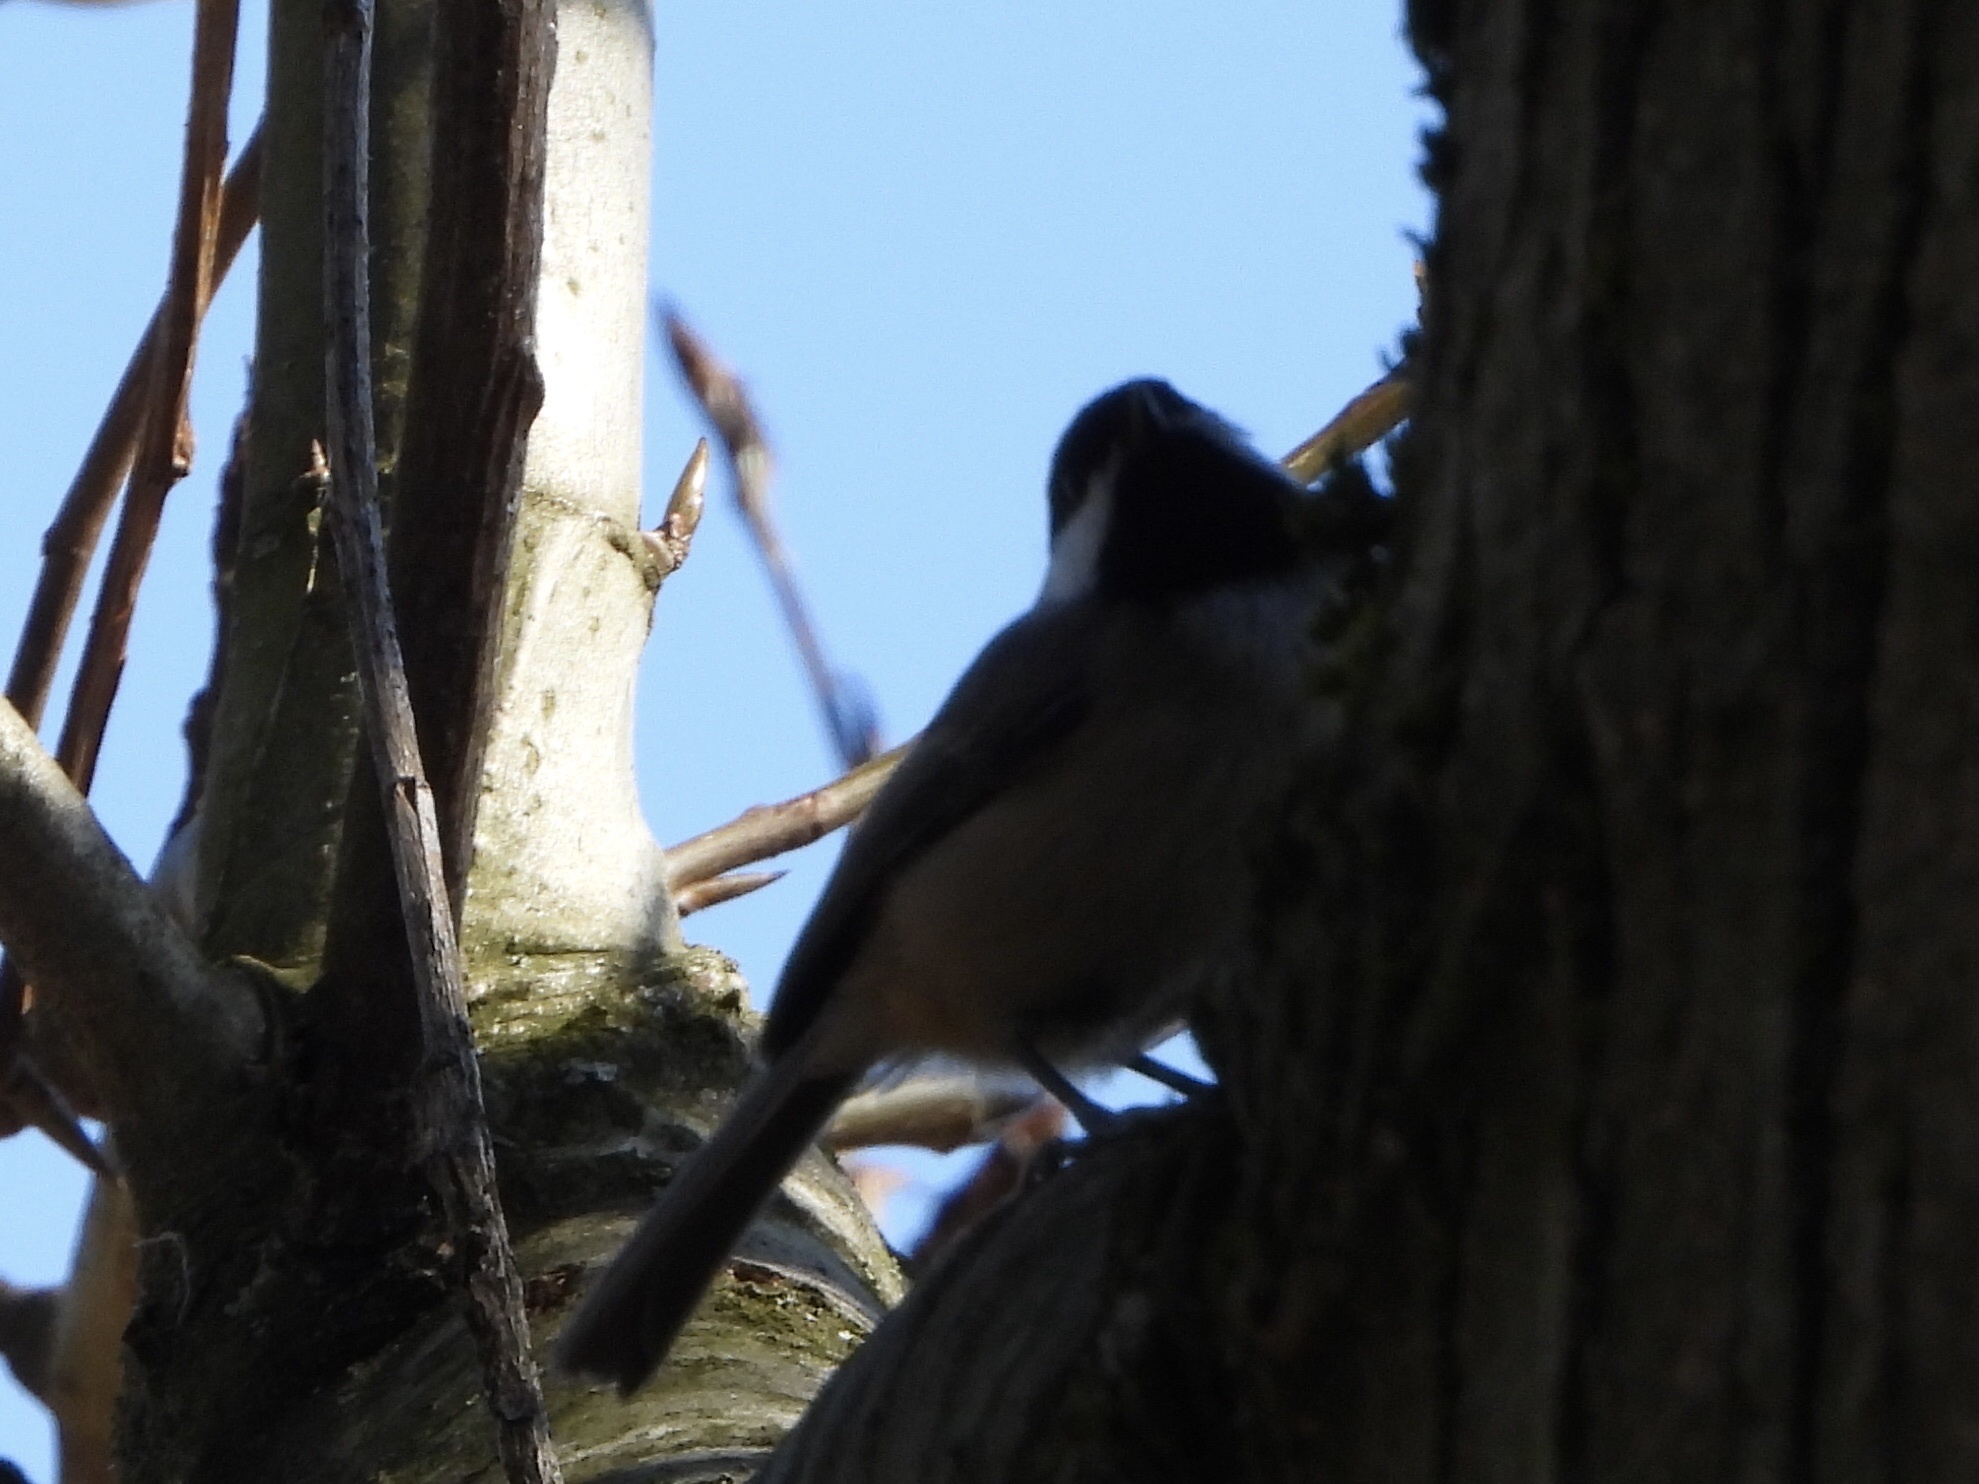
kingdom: Animalia
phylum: Chordata
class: Aves
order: Passeriformes
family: Paridae
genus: Poecile
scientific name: Poecile atricapillus
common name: Black-capped chickadee
